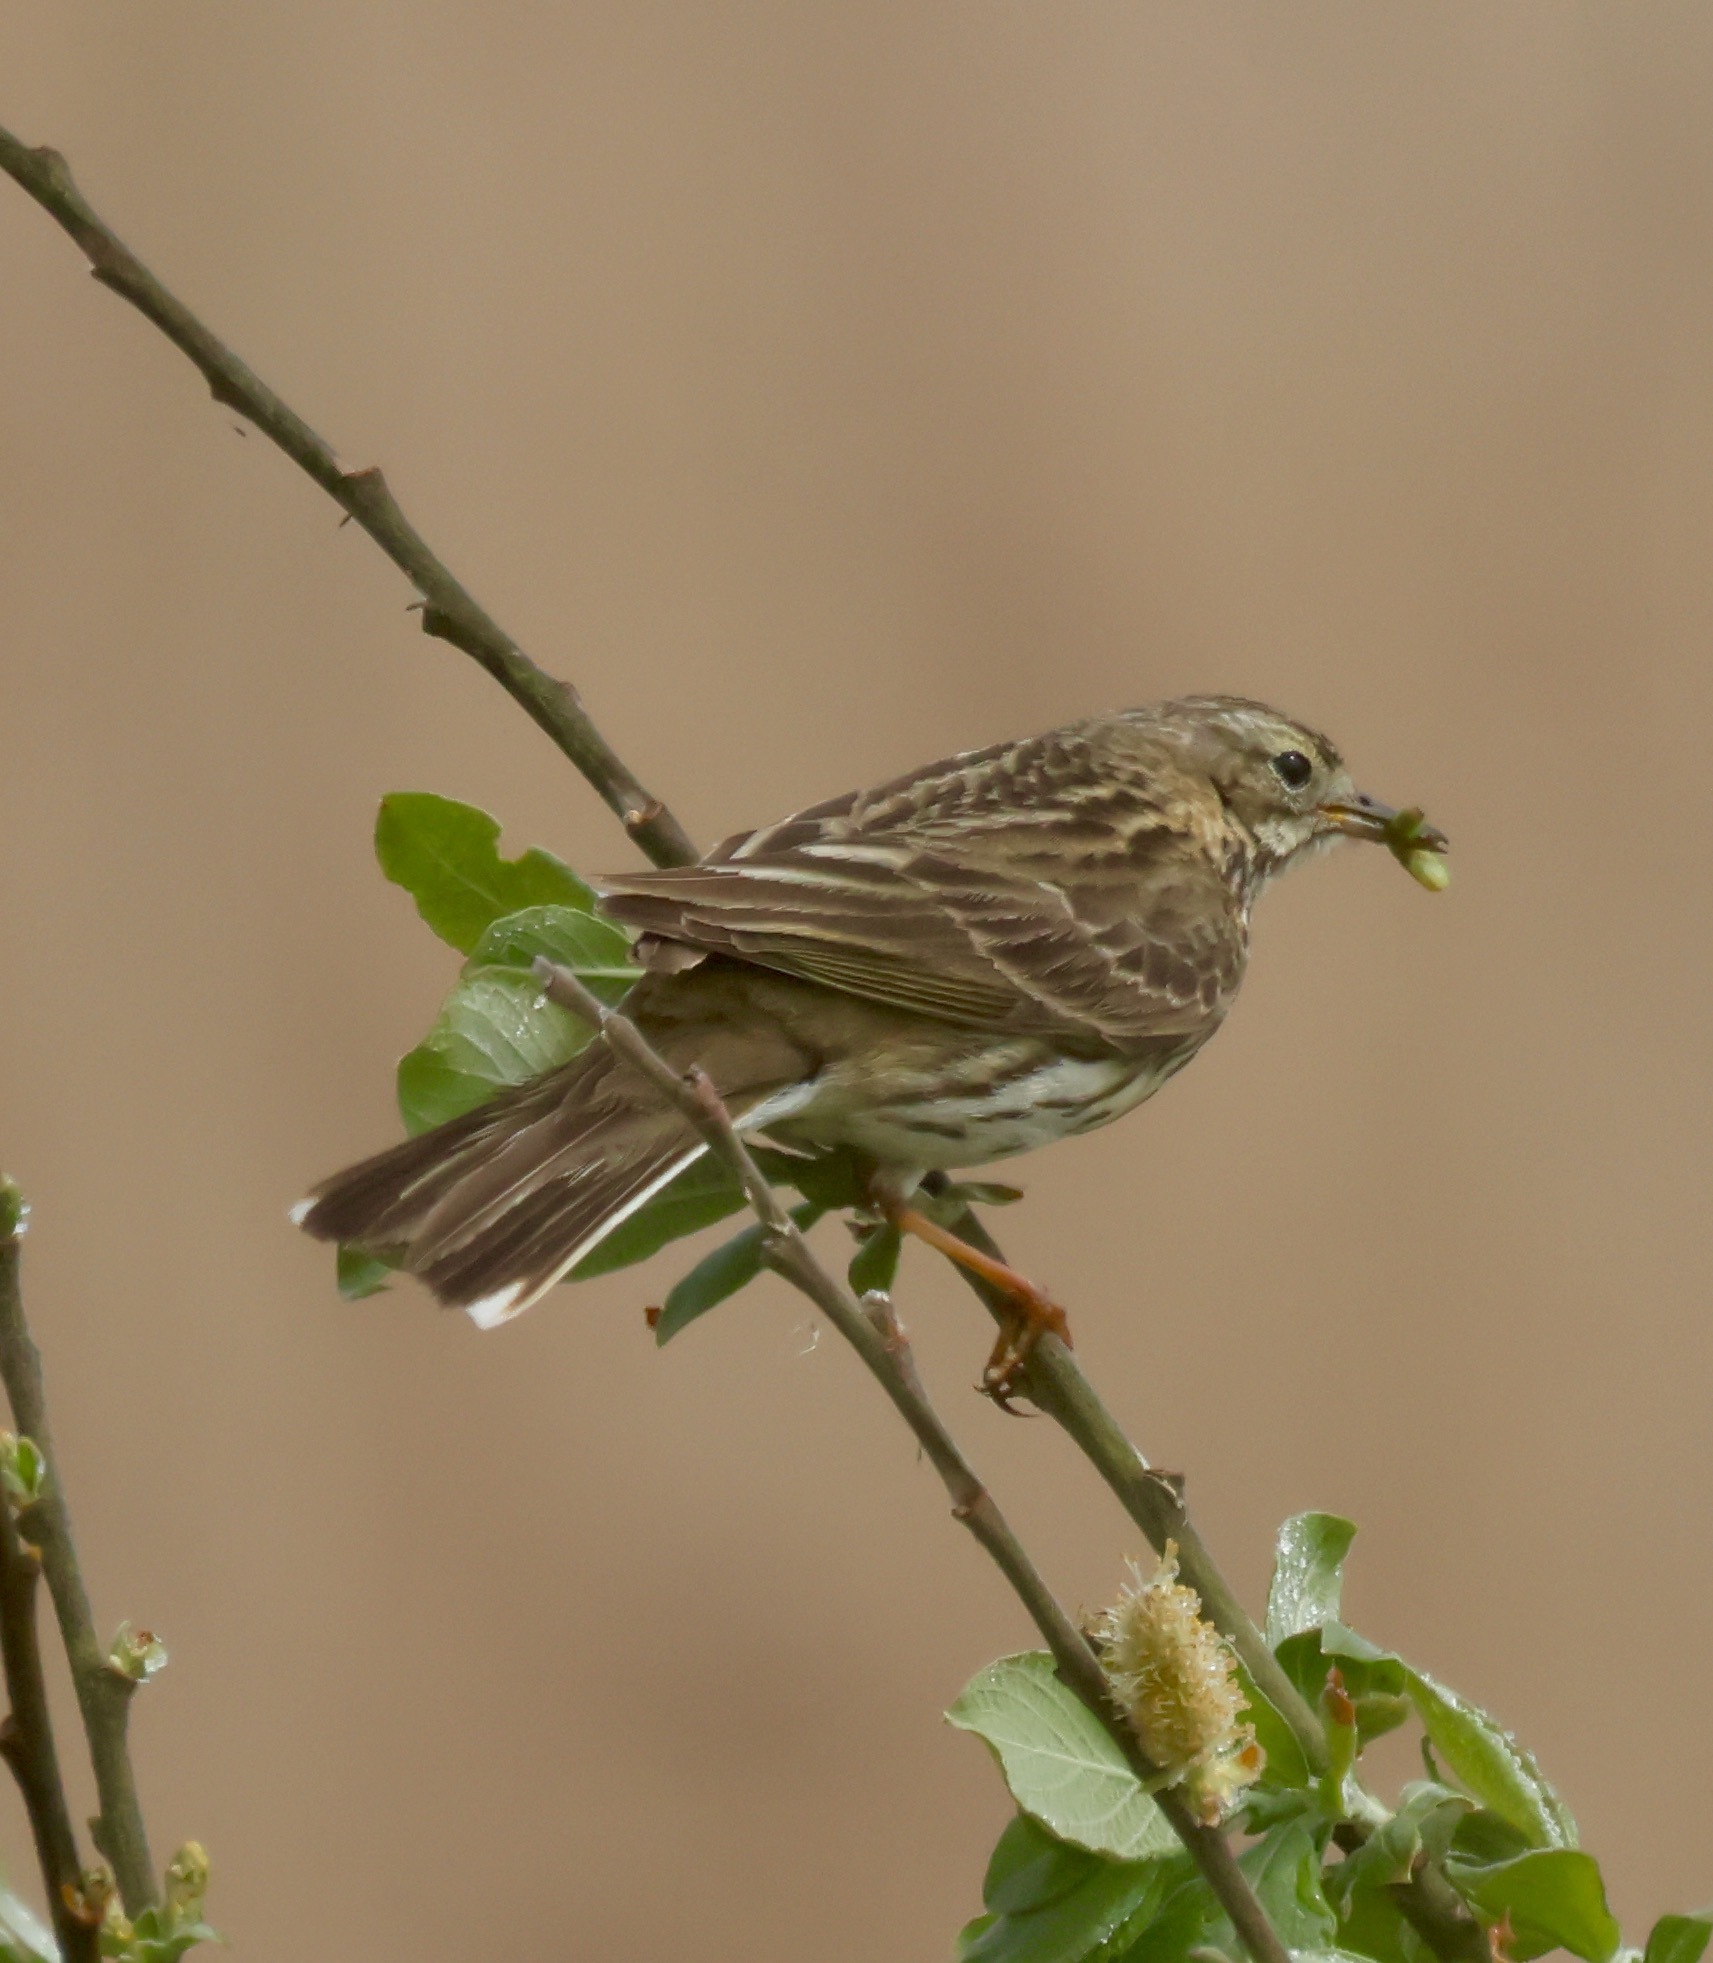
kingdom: Animalia
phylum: Chordata
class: Aves
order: Passeriformes
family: Motacillidae
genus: Anthus
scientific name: Anthus pratensis
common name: Meadow pipit
